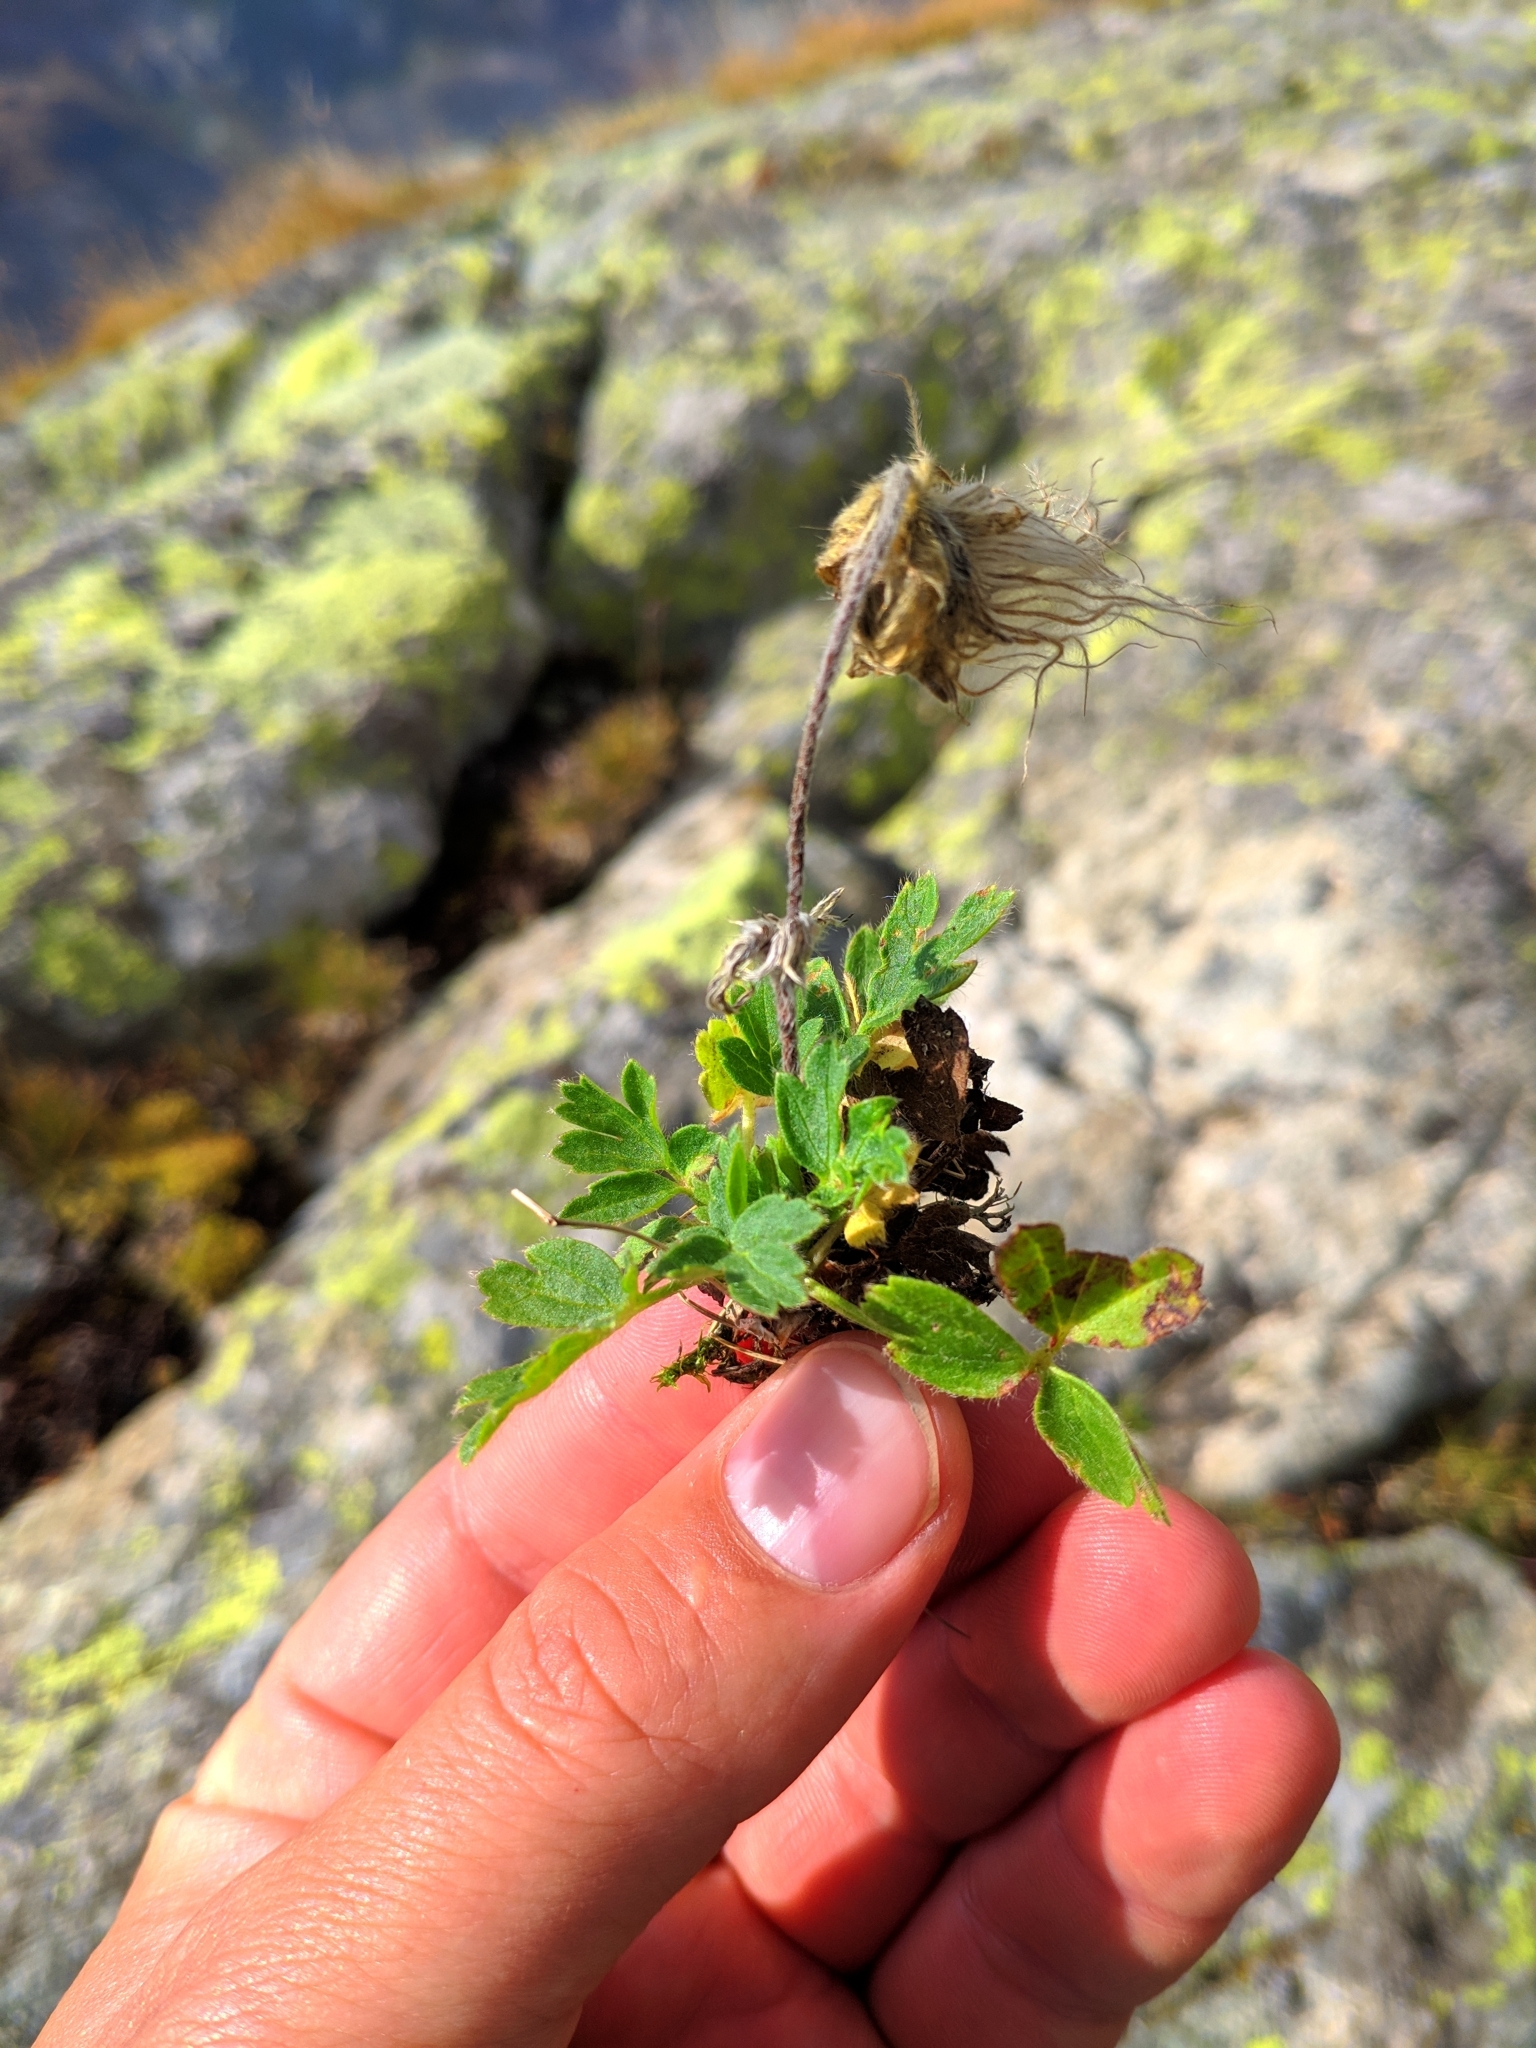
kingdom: Plantae
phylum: Tracheophyta
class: Magnoliopsida
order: Ranunculales
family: Ranunculaceae
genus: Pulsatilla
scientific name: Pulsatilla vernalis
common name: Spring pasque flower
